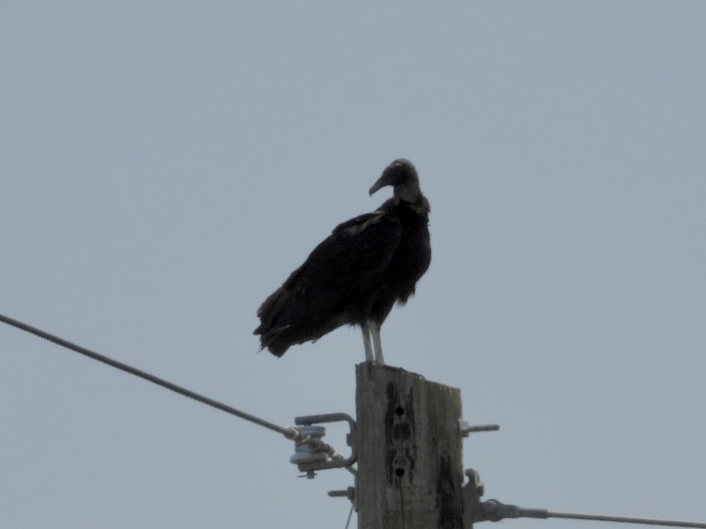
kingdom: Animalia
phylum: Chordata
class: Aves
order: Accipitriformes
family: Cathartidae
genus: Coragyps
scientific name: Coragyps atratus
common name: Black vulture
